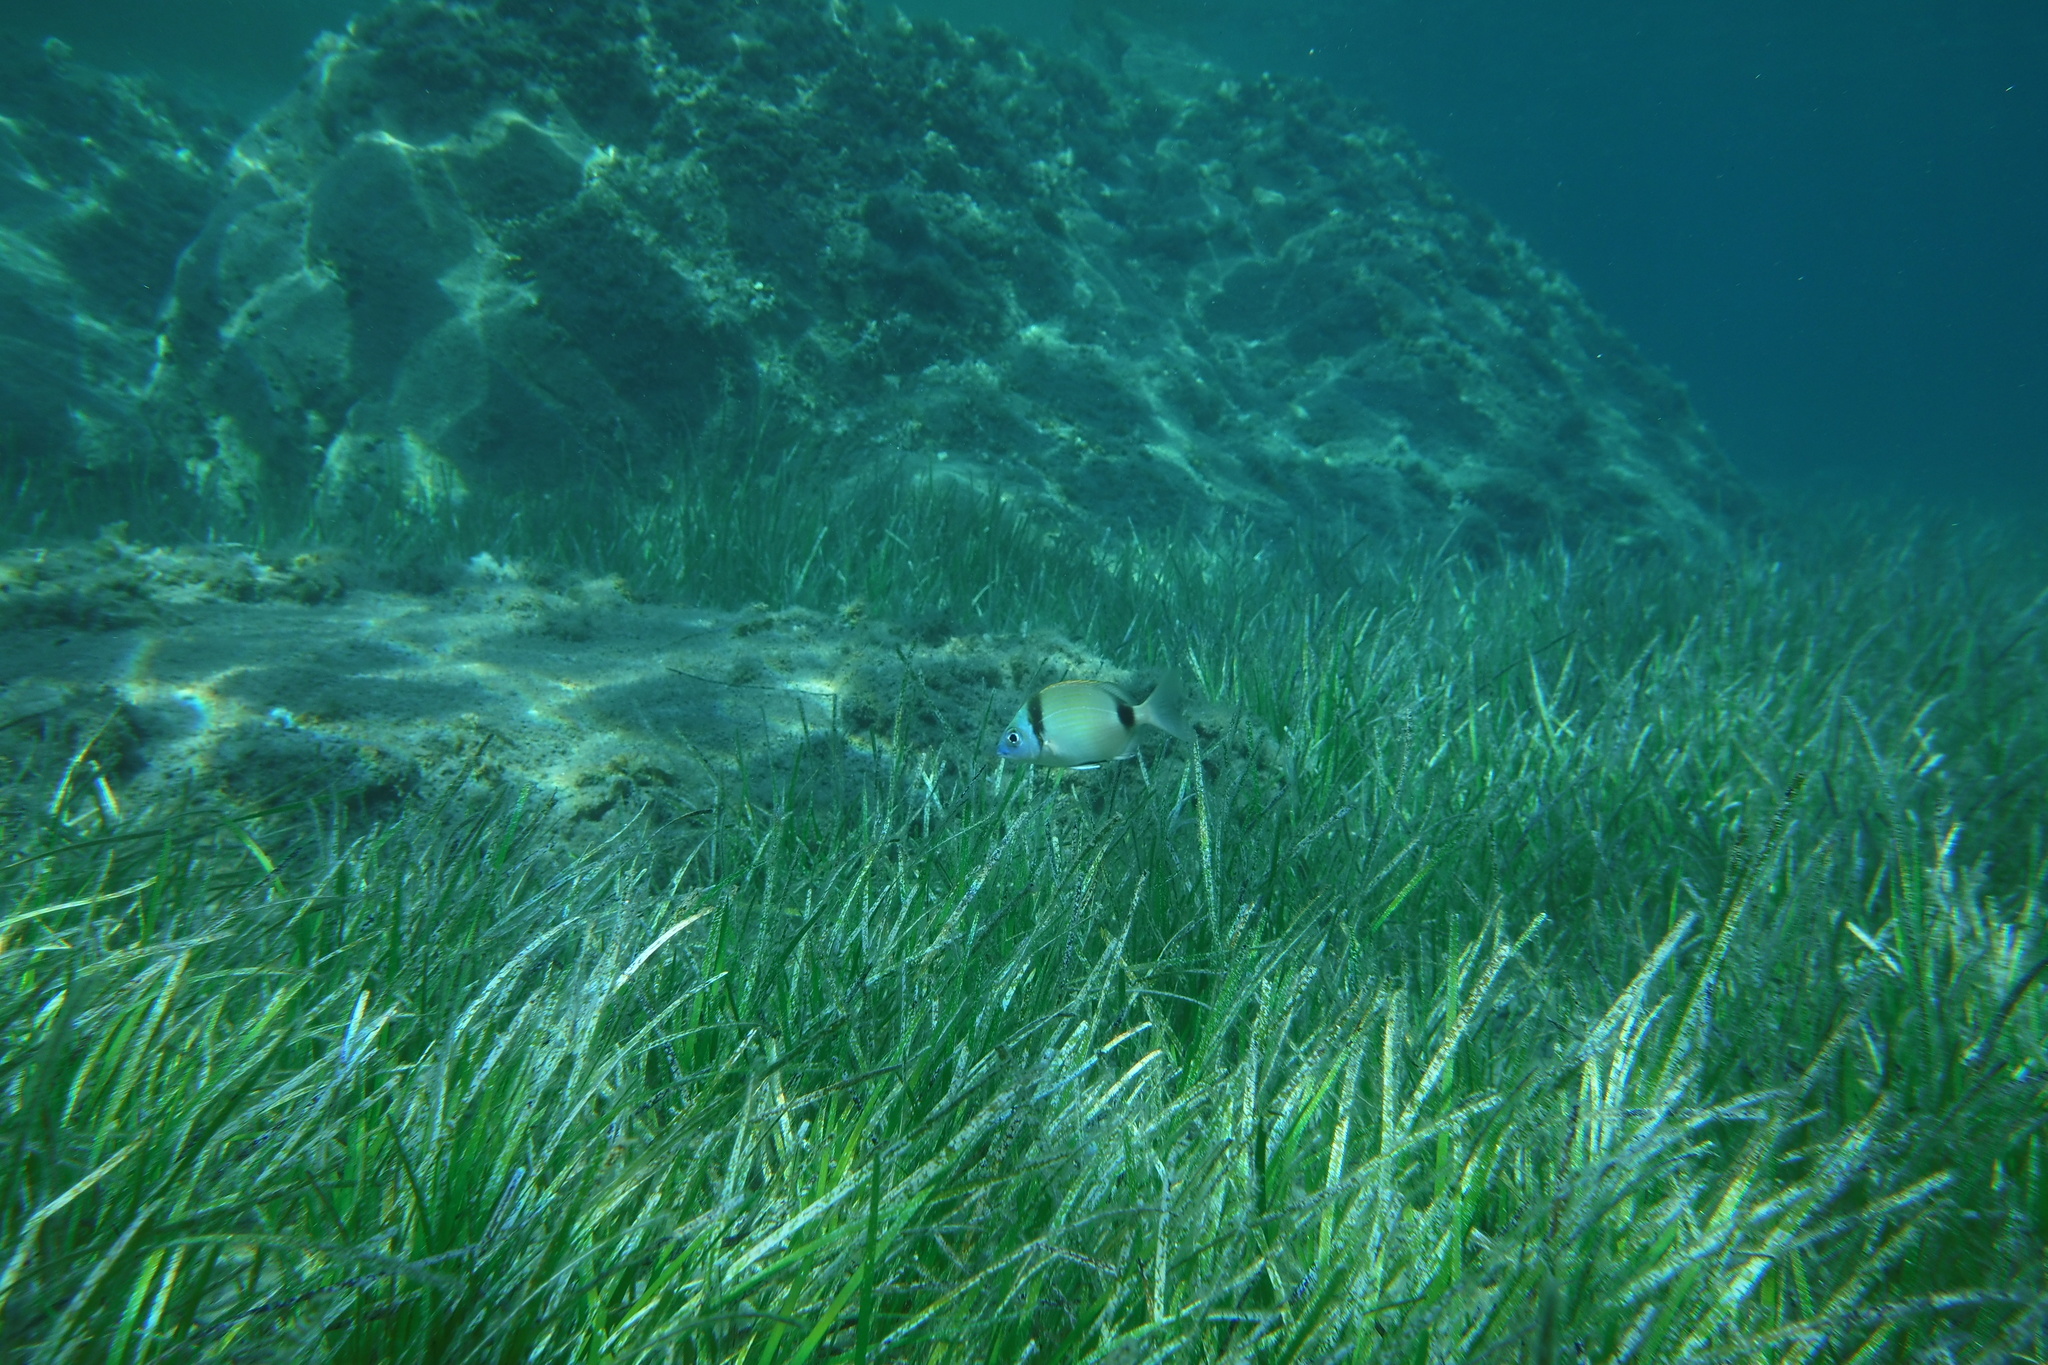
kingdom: Animalia
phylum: Chordata
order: Perciformes
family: Sparidae
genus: Diplodus
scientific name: Diplodus vulgaris
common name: Common two-banded seabream
